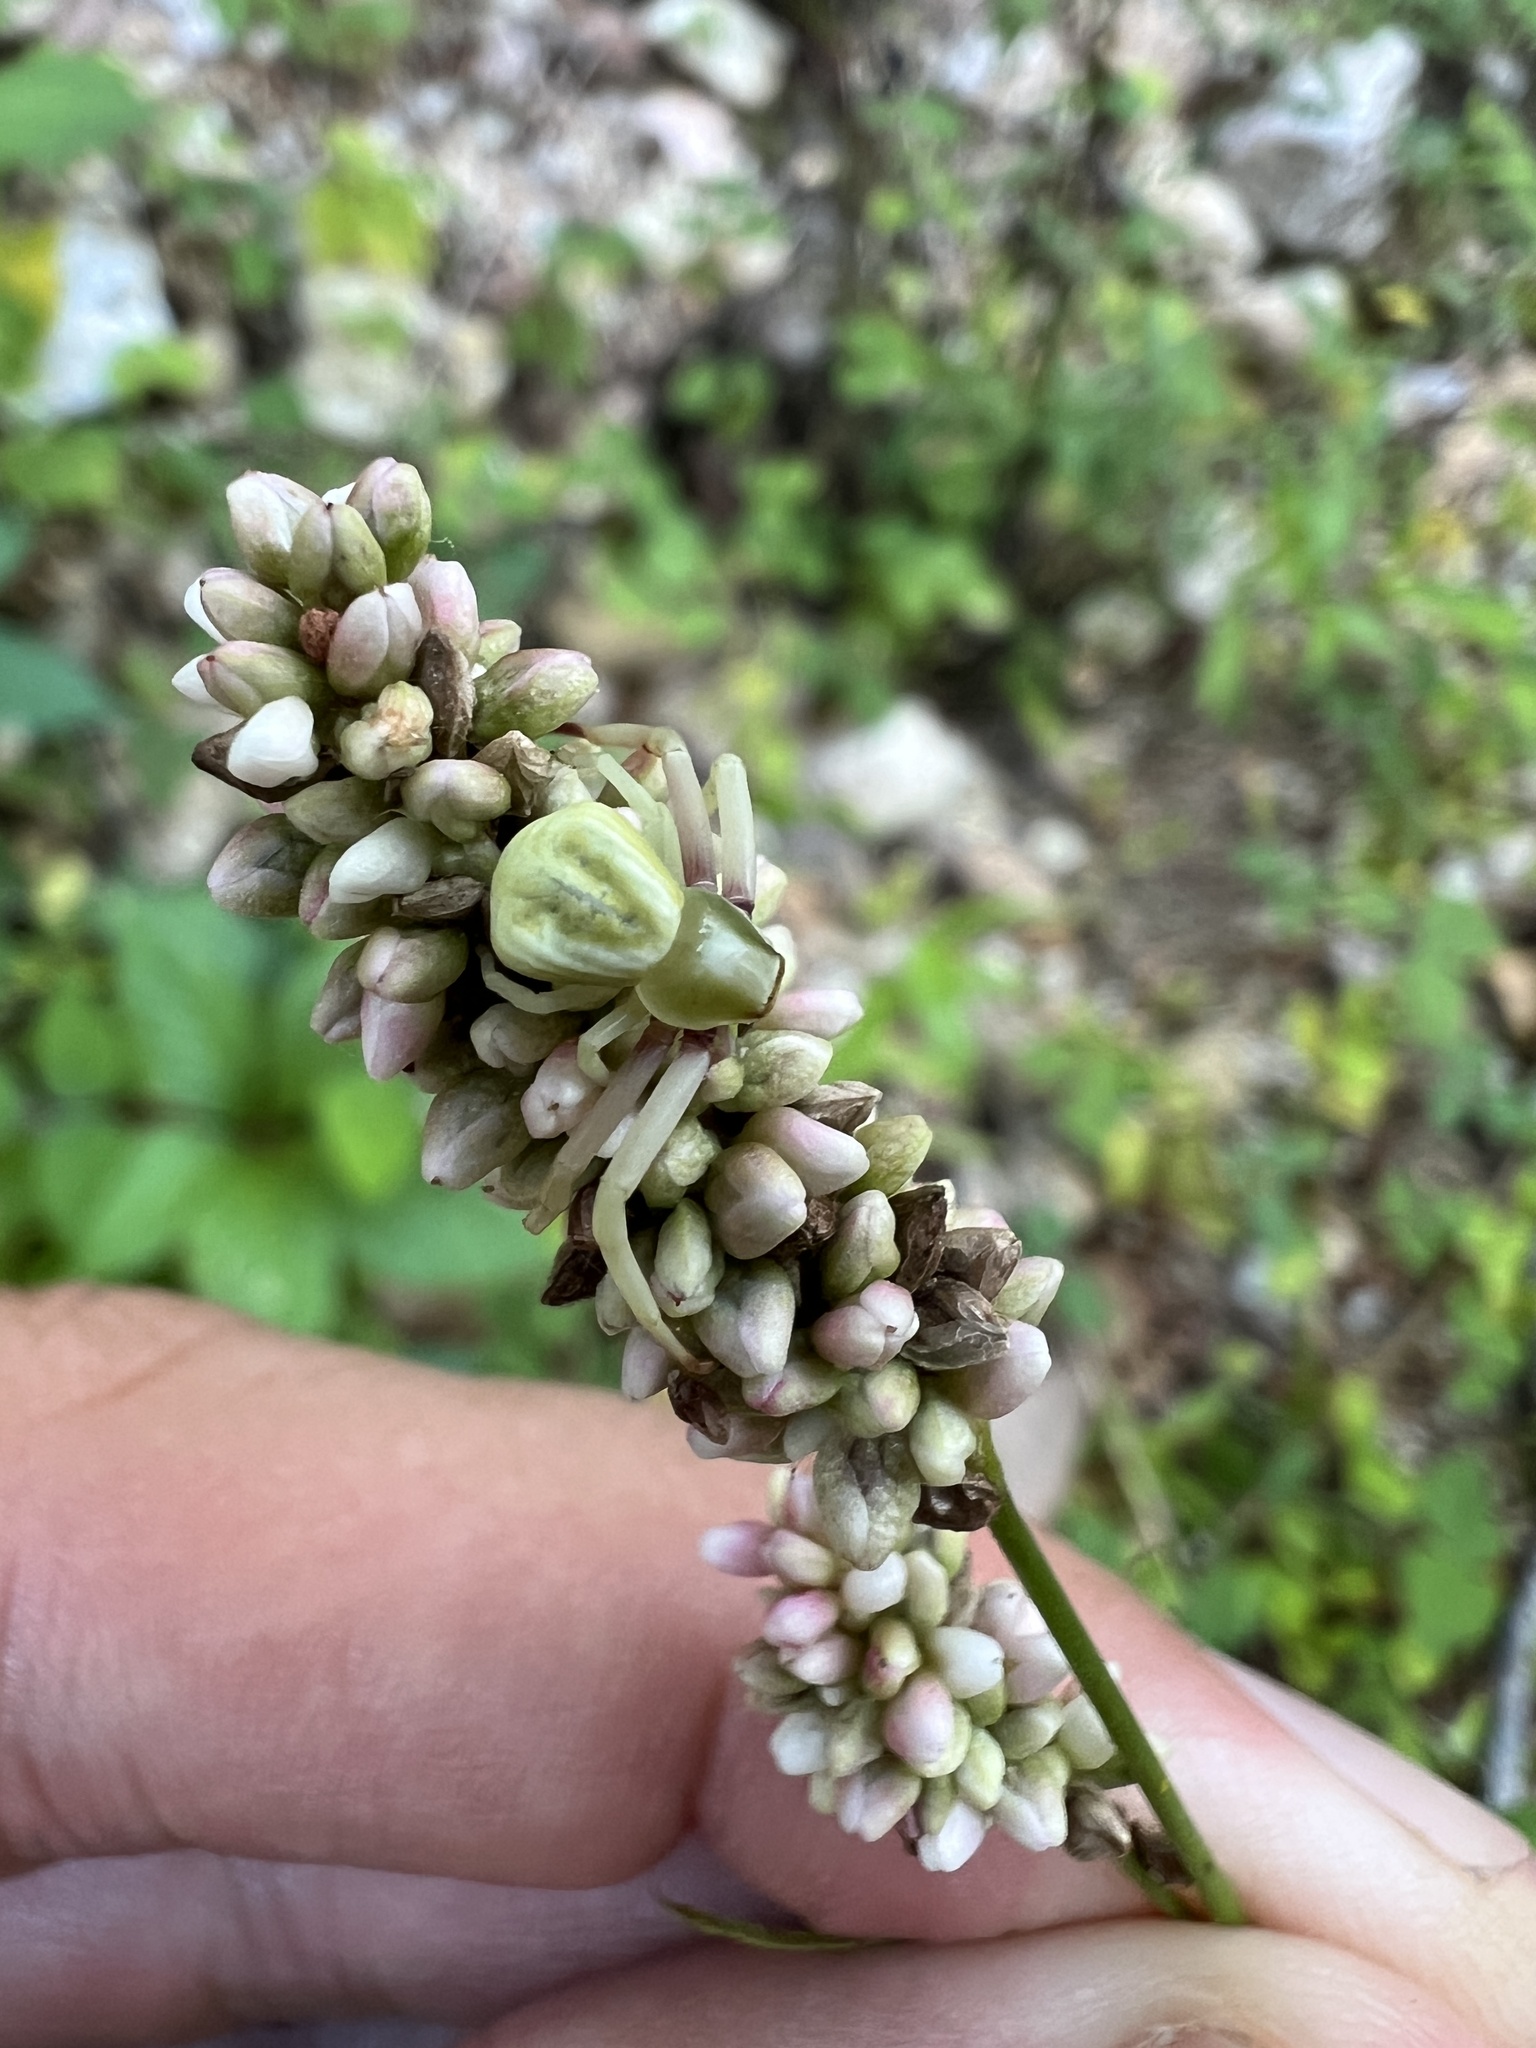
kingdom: Animalia
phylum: Arthropoda
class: Arachnida
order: Araneae
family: Thomisidae
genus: Misumenoides
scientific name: Misumenoides formosipes
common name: White-banded crab spider
